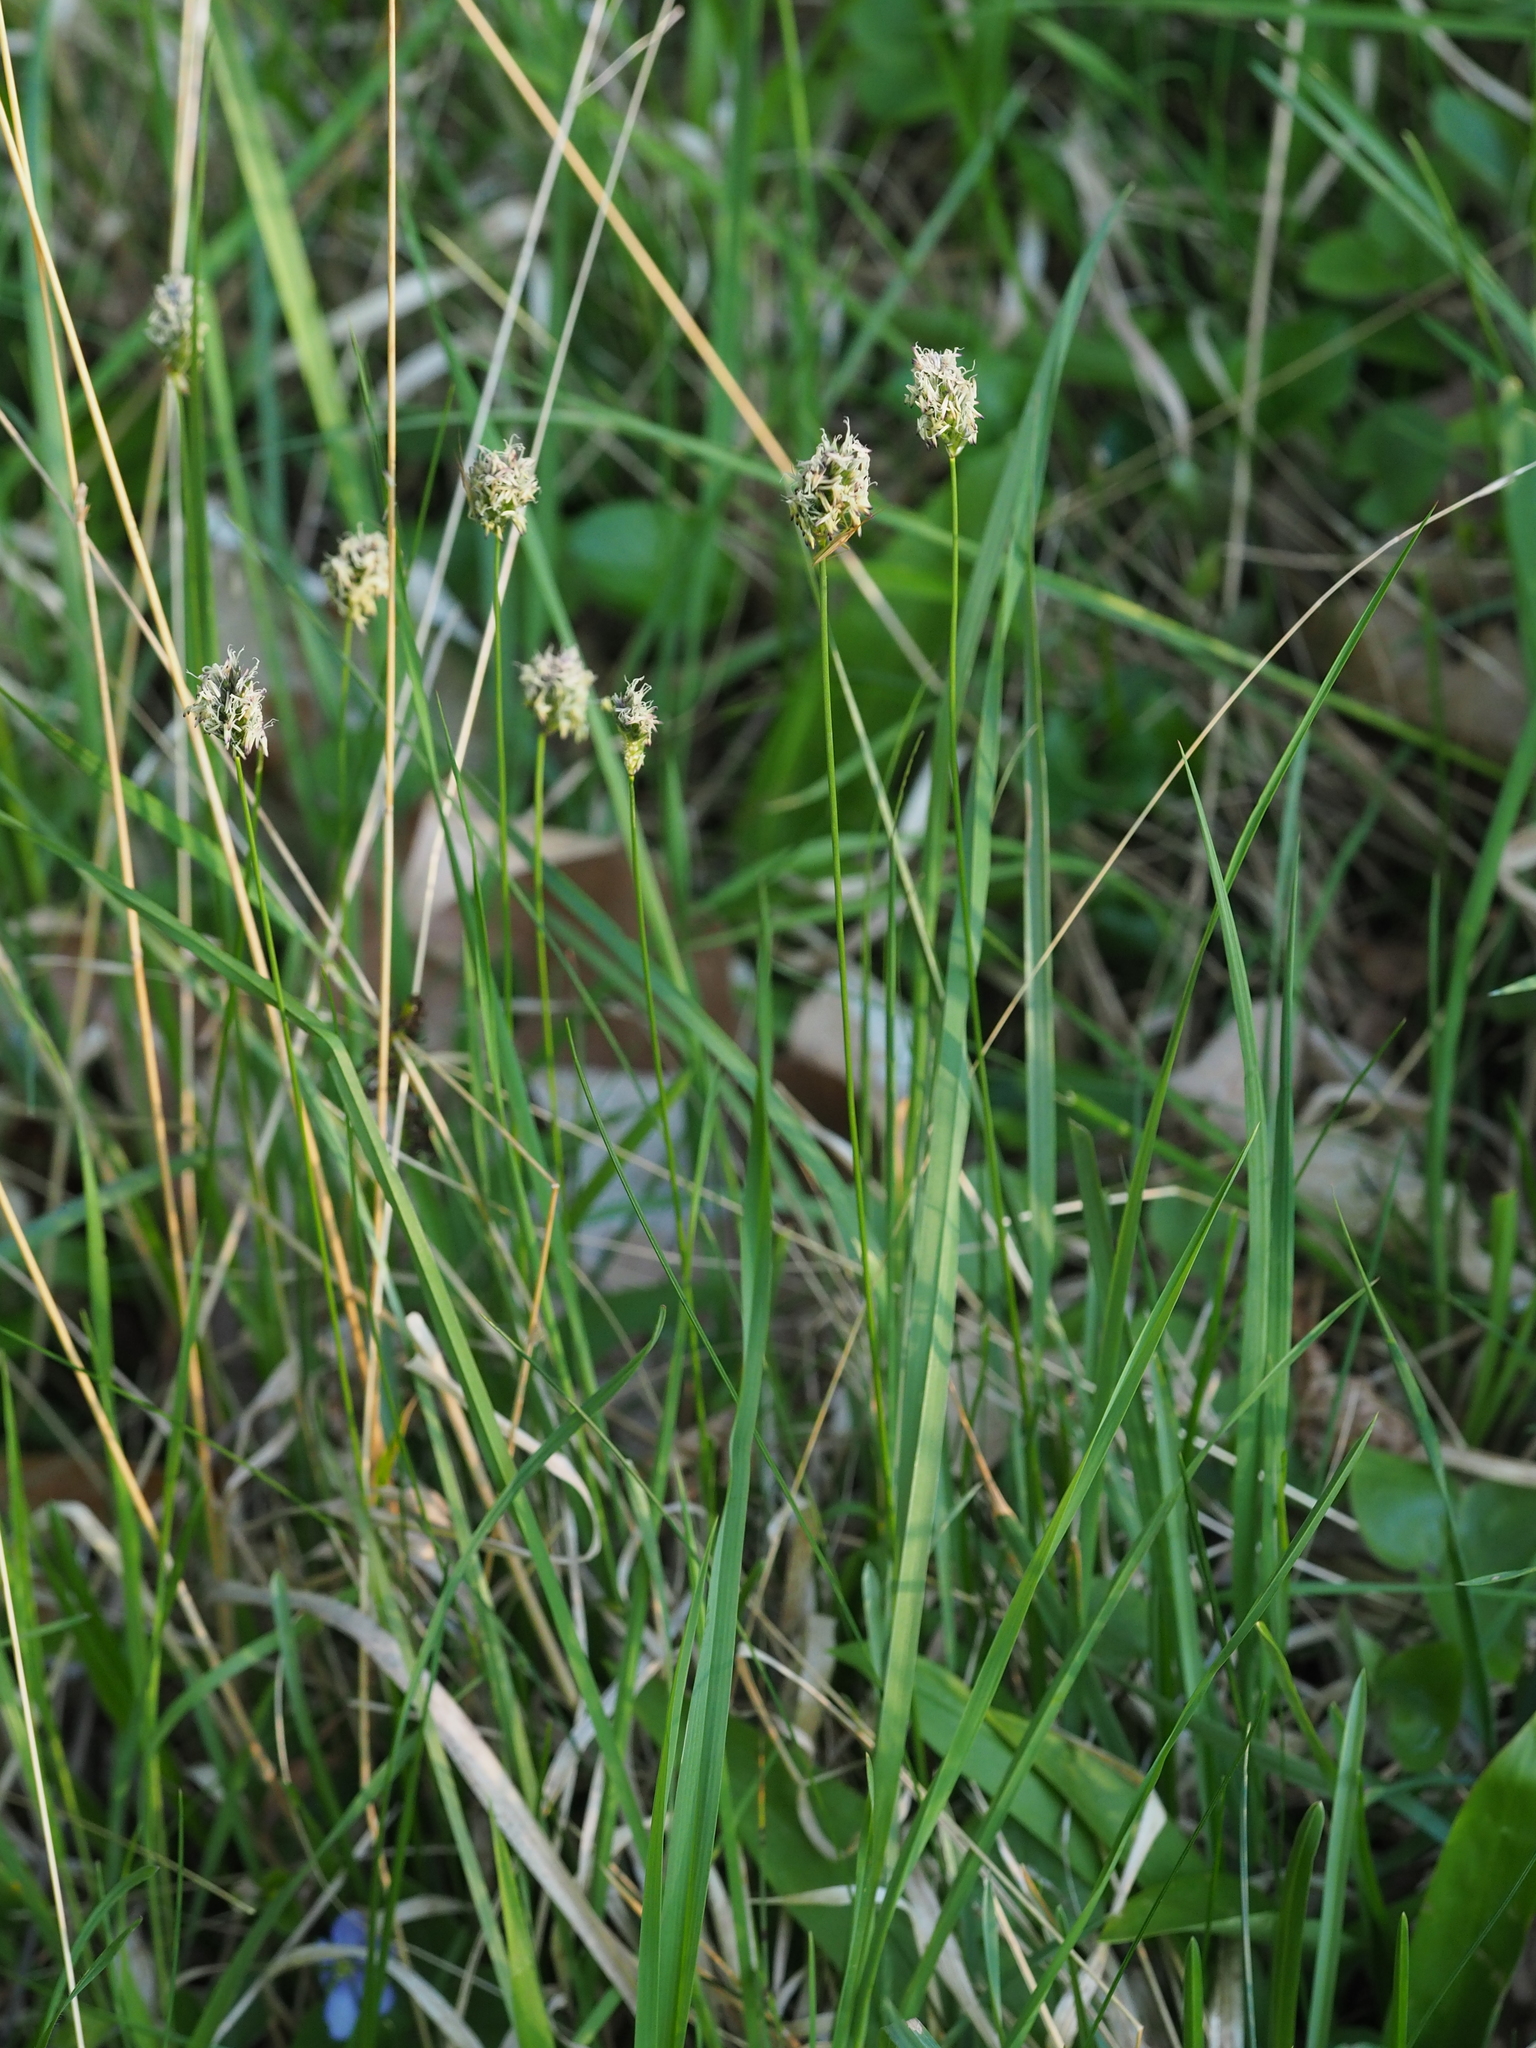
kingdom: Plantae
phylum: Tracheophyta
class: Liliopsida
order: Poales
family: Poaceae
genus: Sesleria
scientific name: Sesleria caerulea
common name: Blue moor-grass
